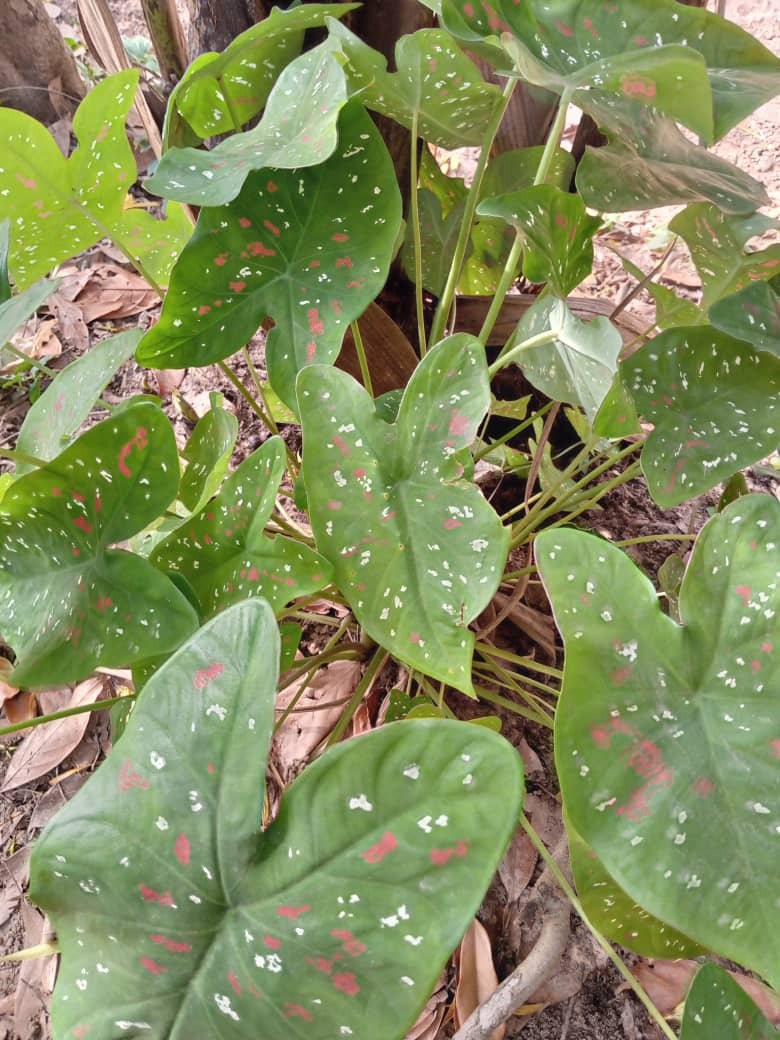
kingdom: Plantae
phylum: Tracheophyta
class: Liliopsida
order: Alismatales
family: Araceae
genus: Caladium
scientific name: Caladium bicolor
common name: Artist's pallet
